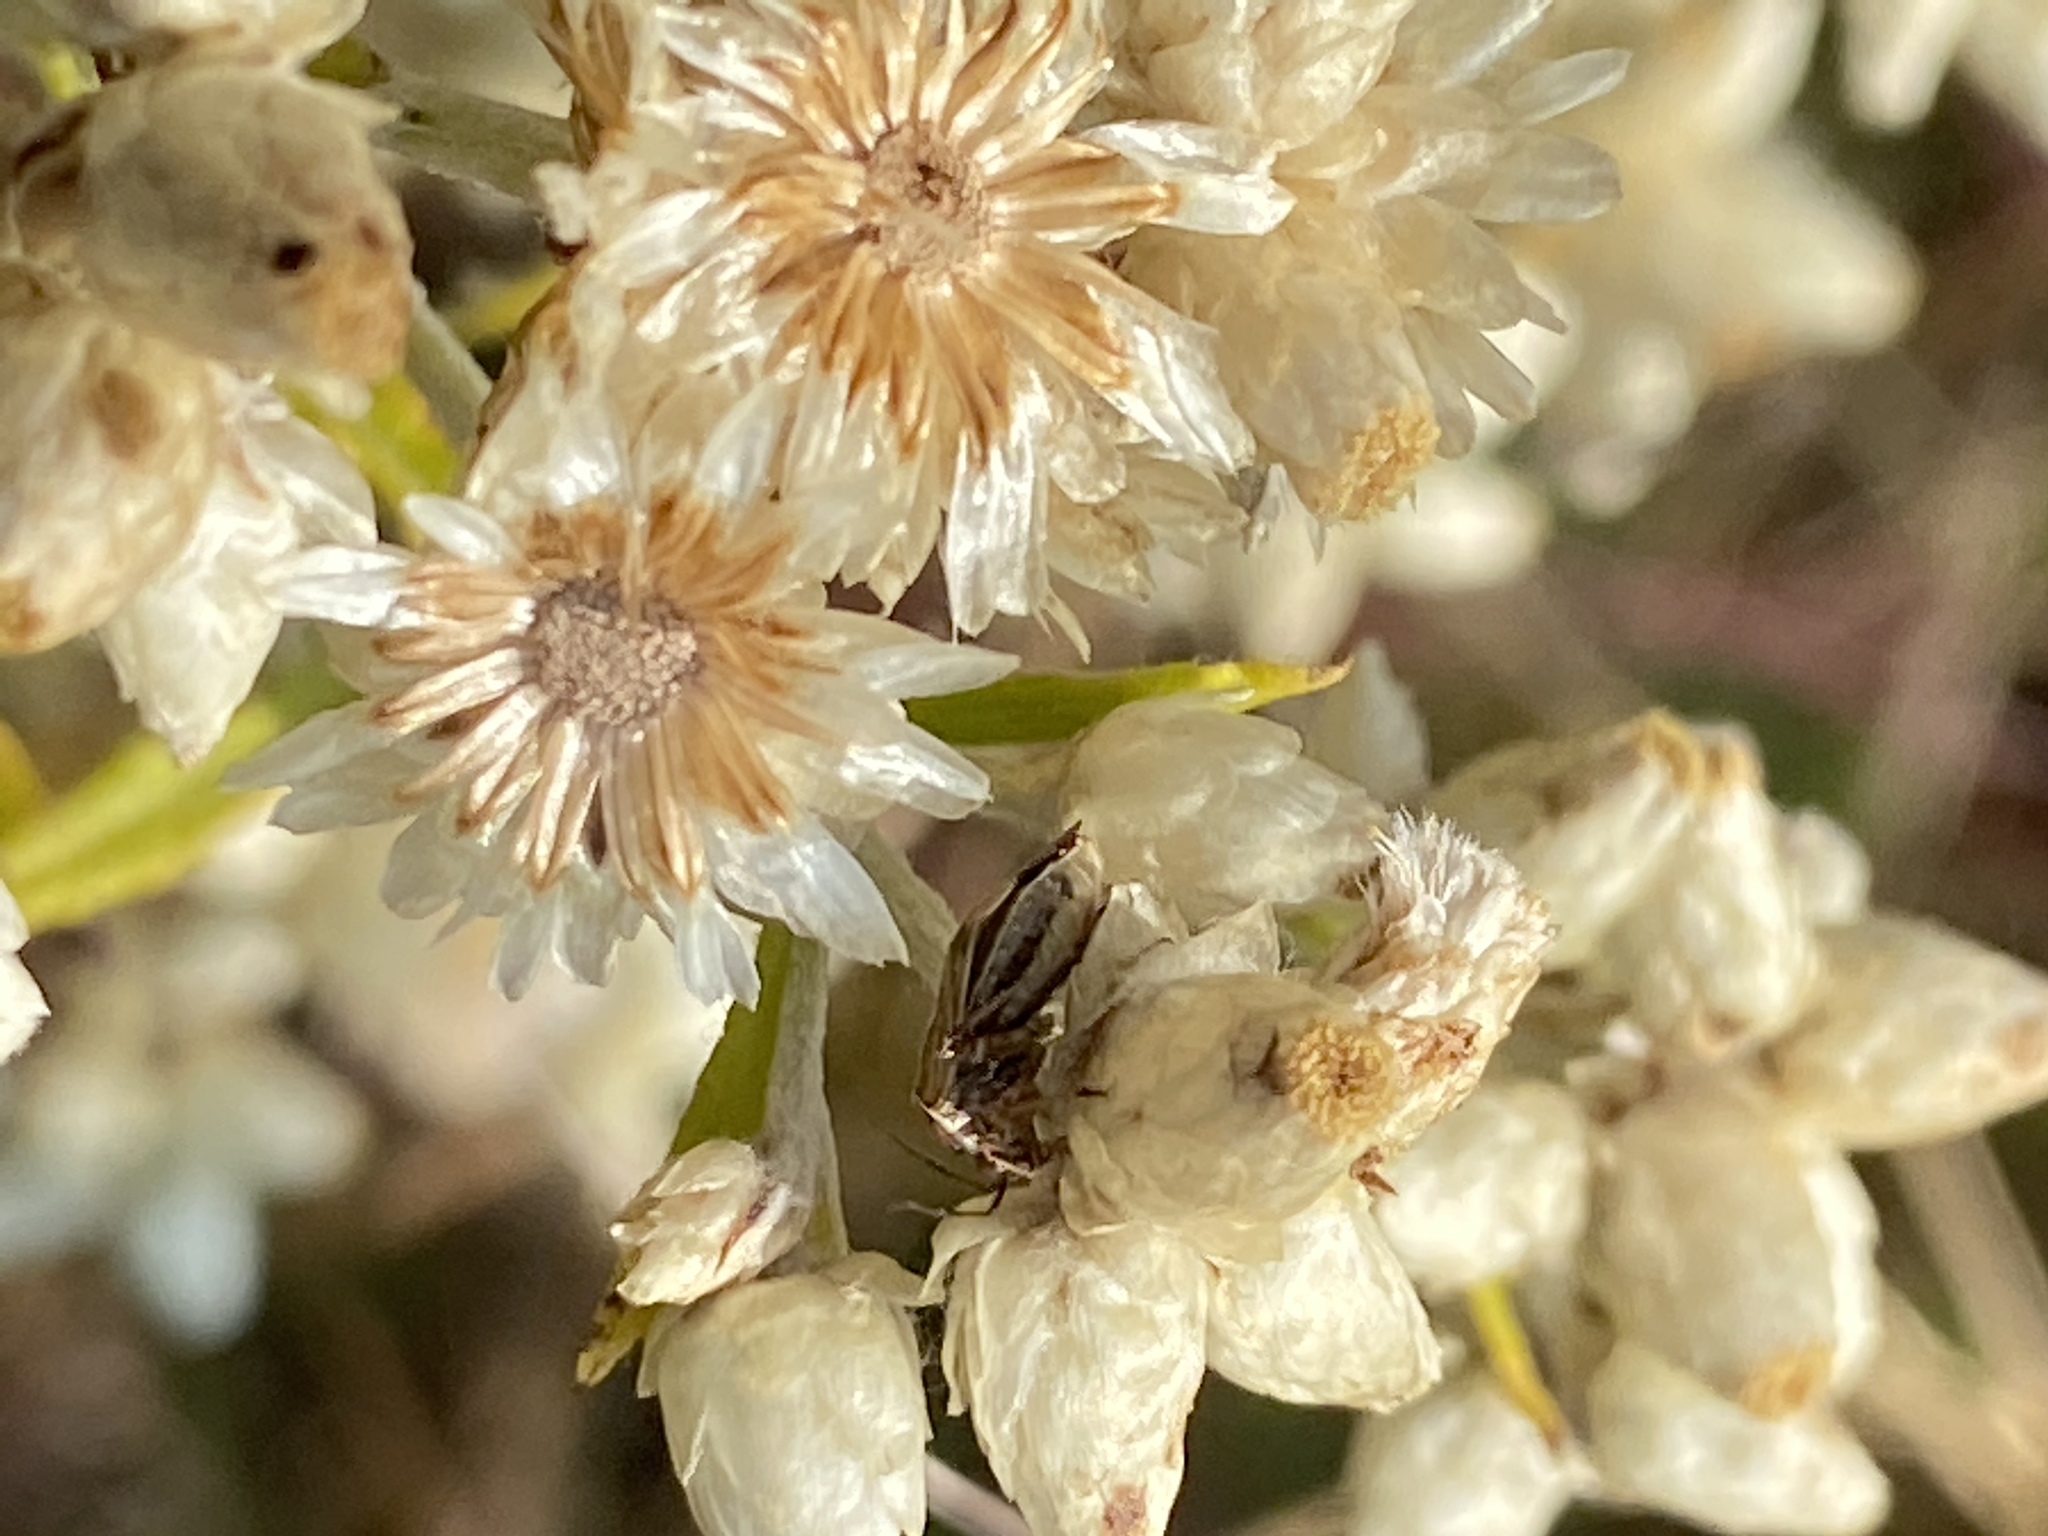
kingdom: Plantae
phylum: Tracheophyta
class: Magnoliopsida
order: Asterales
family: Asteraceae
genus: Pseudognaphalium
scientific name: Pseudognaphalium obtusifolium
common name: Eastern rabbit-tobacco
